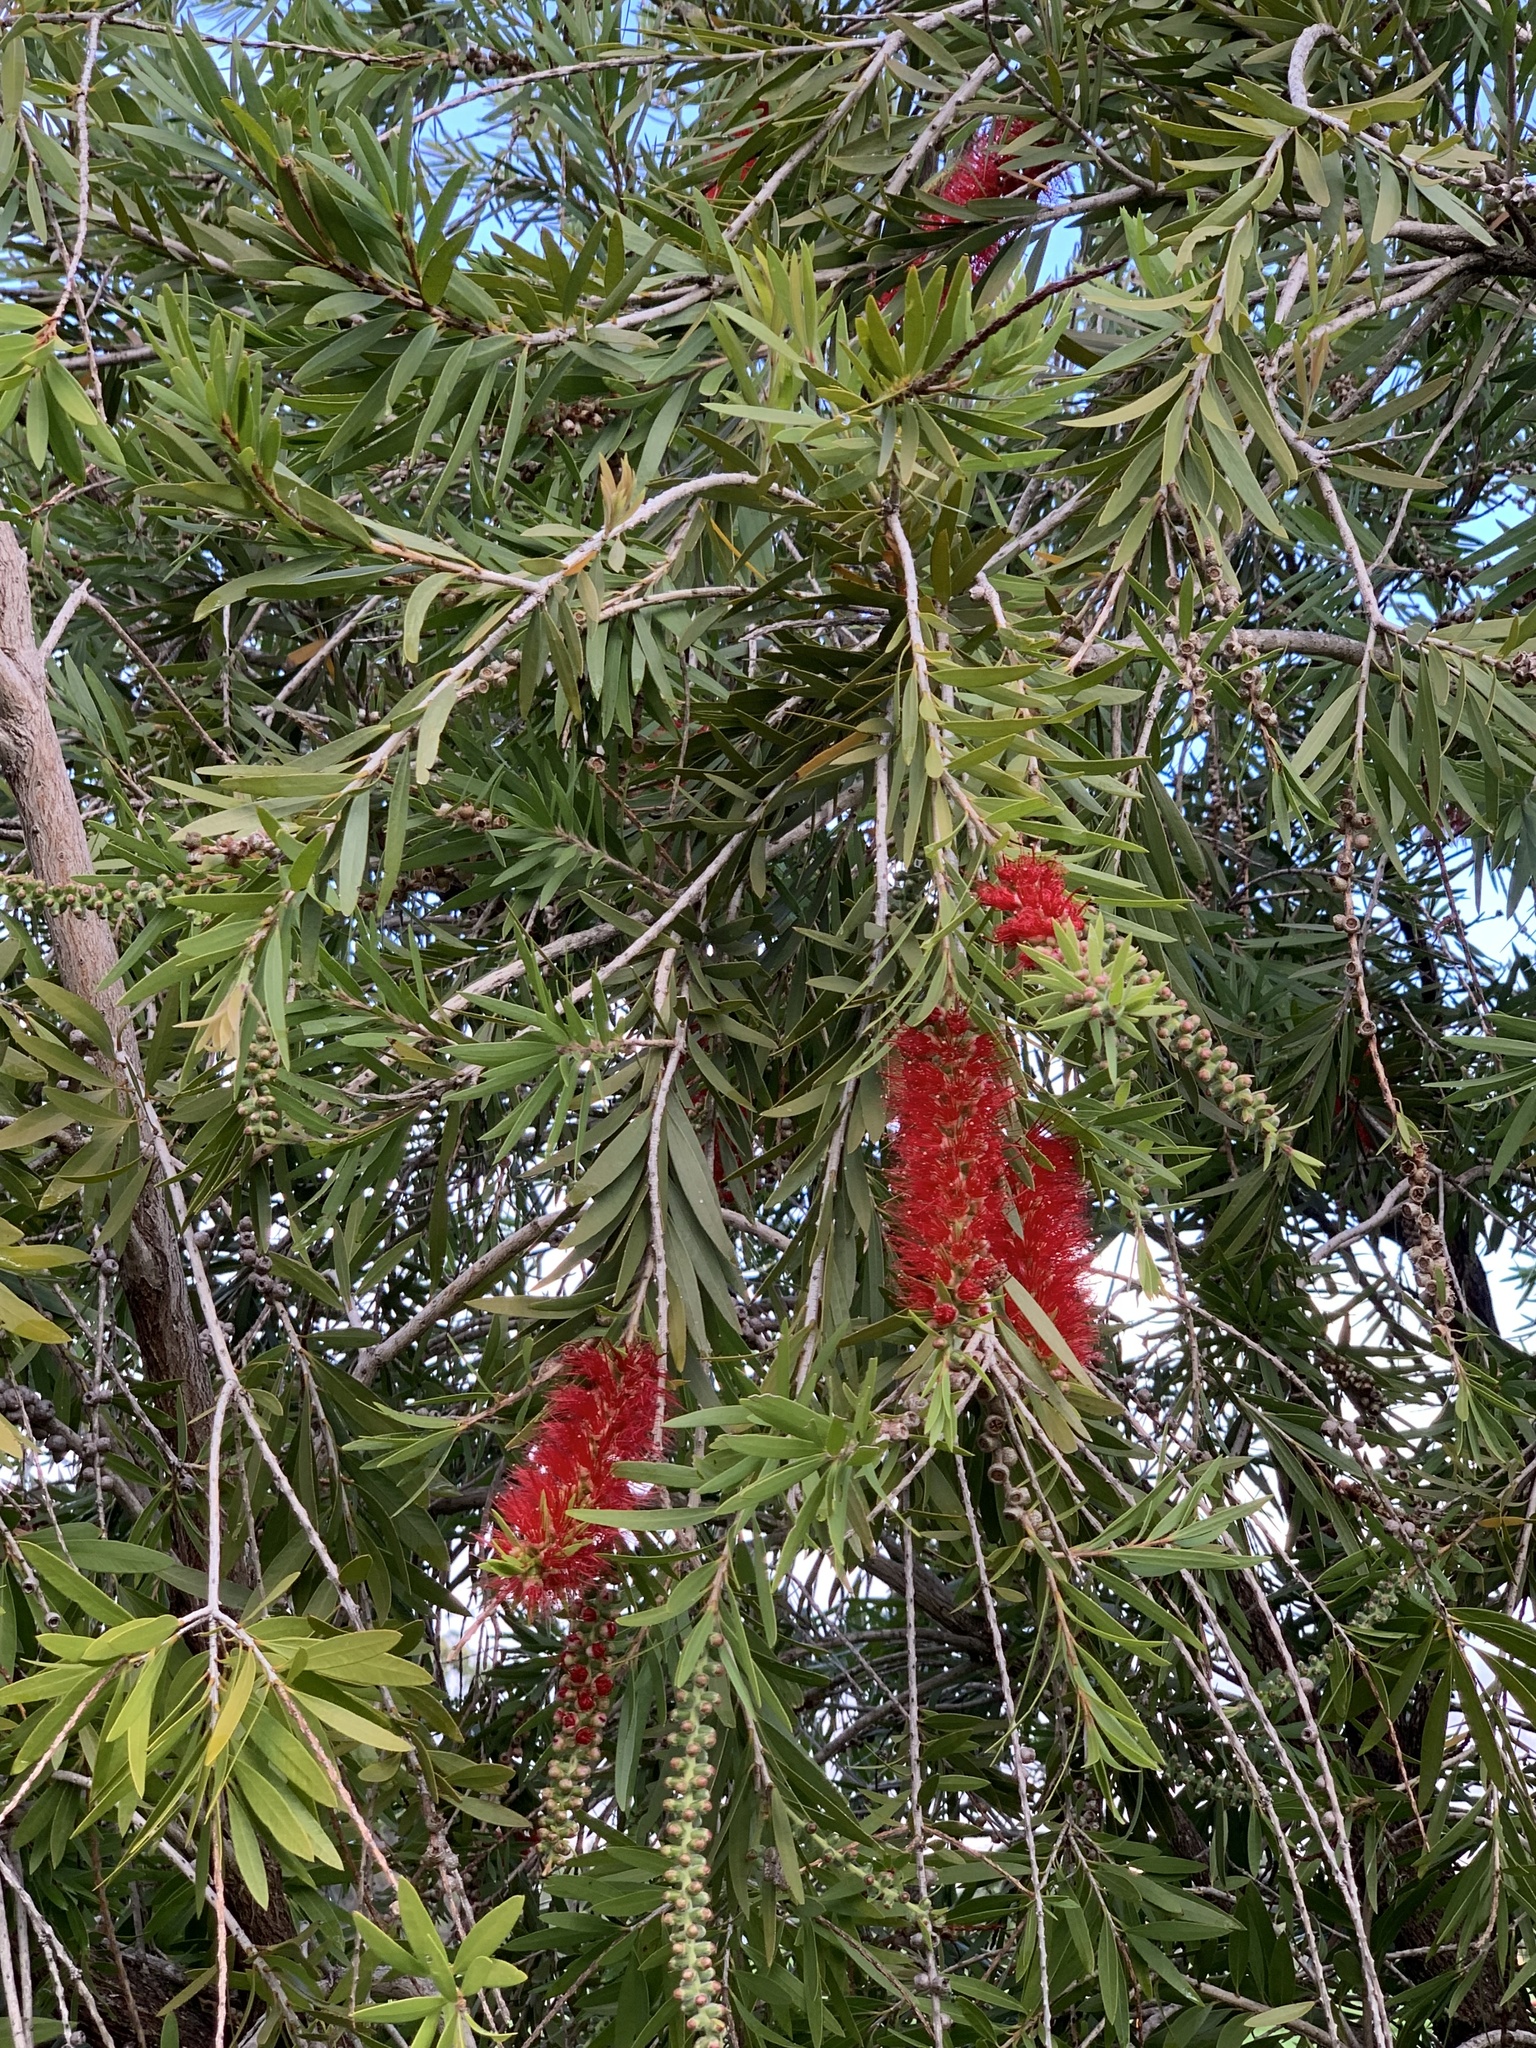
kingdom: Plantae
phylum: Tracheophyta
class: Magnoliopsida
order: Myrtales
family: Myrtaceae
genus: Callistemon
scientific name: Callistemon viminalis
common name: Drooping bottlebrush
